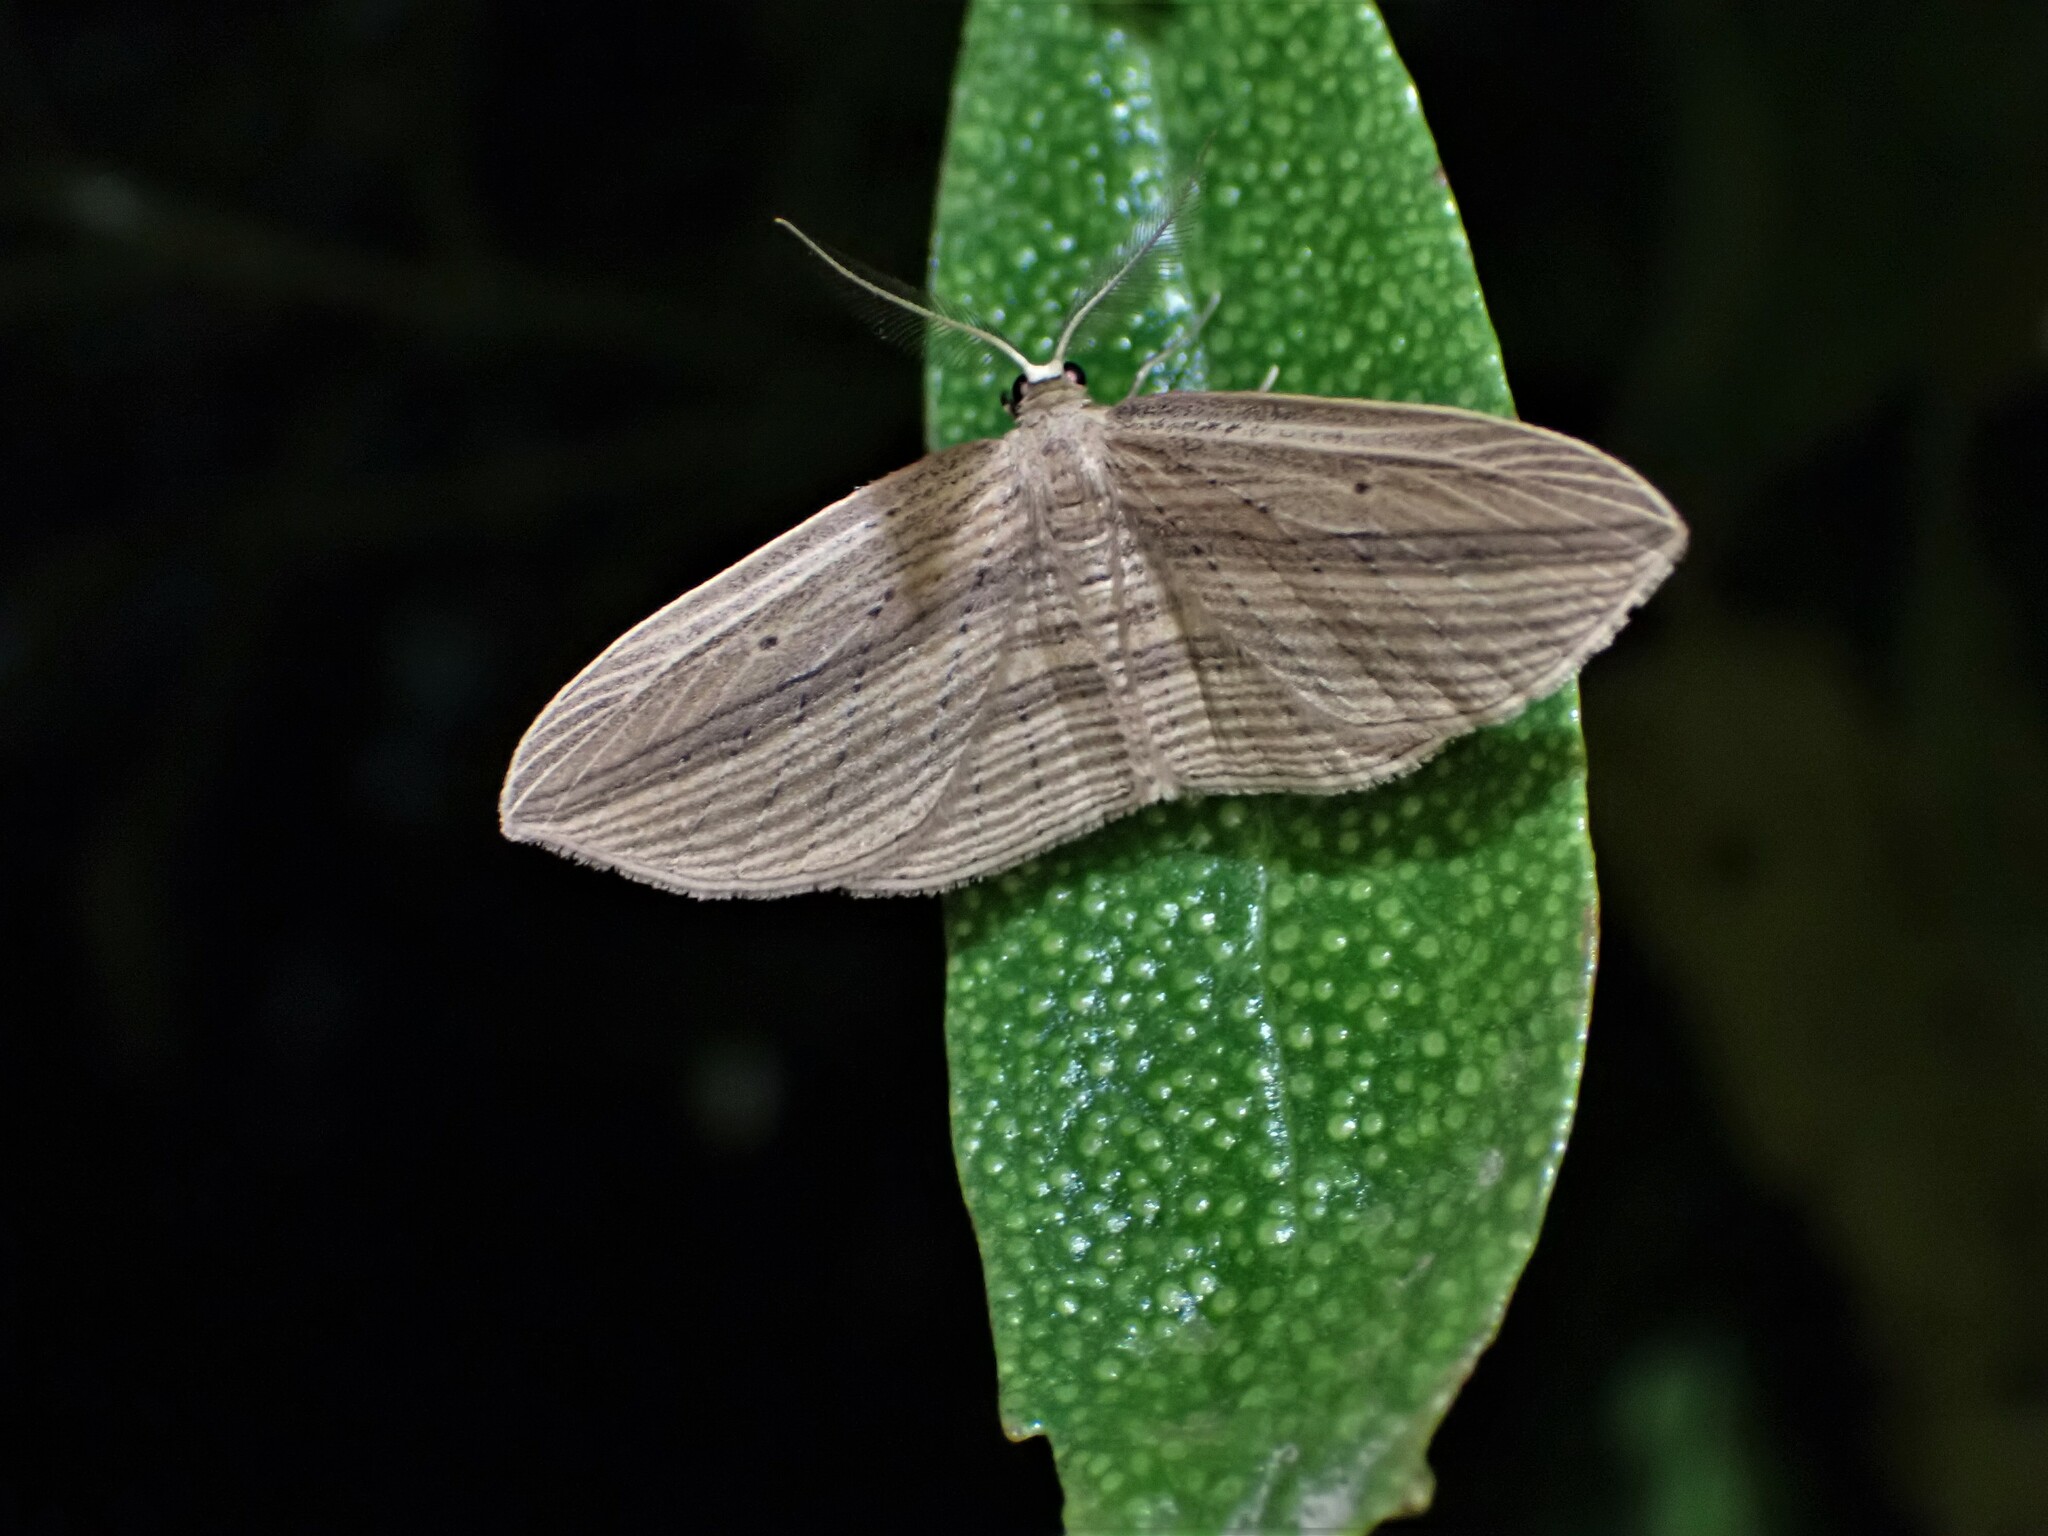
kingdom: Animalia
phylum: Arthropoda
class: Insecta
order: Lepidoptera
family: Geometridae
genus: Epiphryne
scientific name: Epiphryne verriculata
